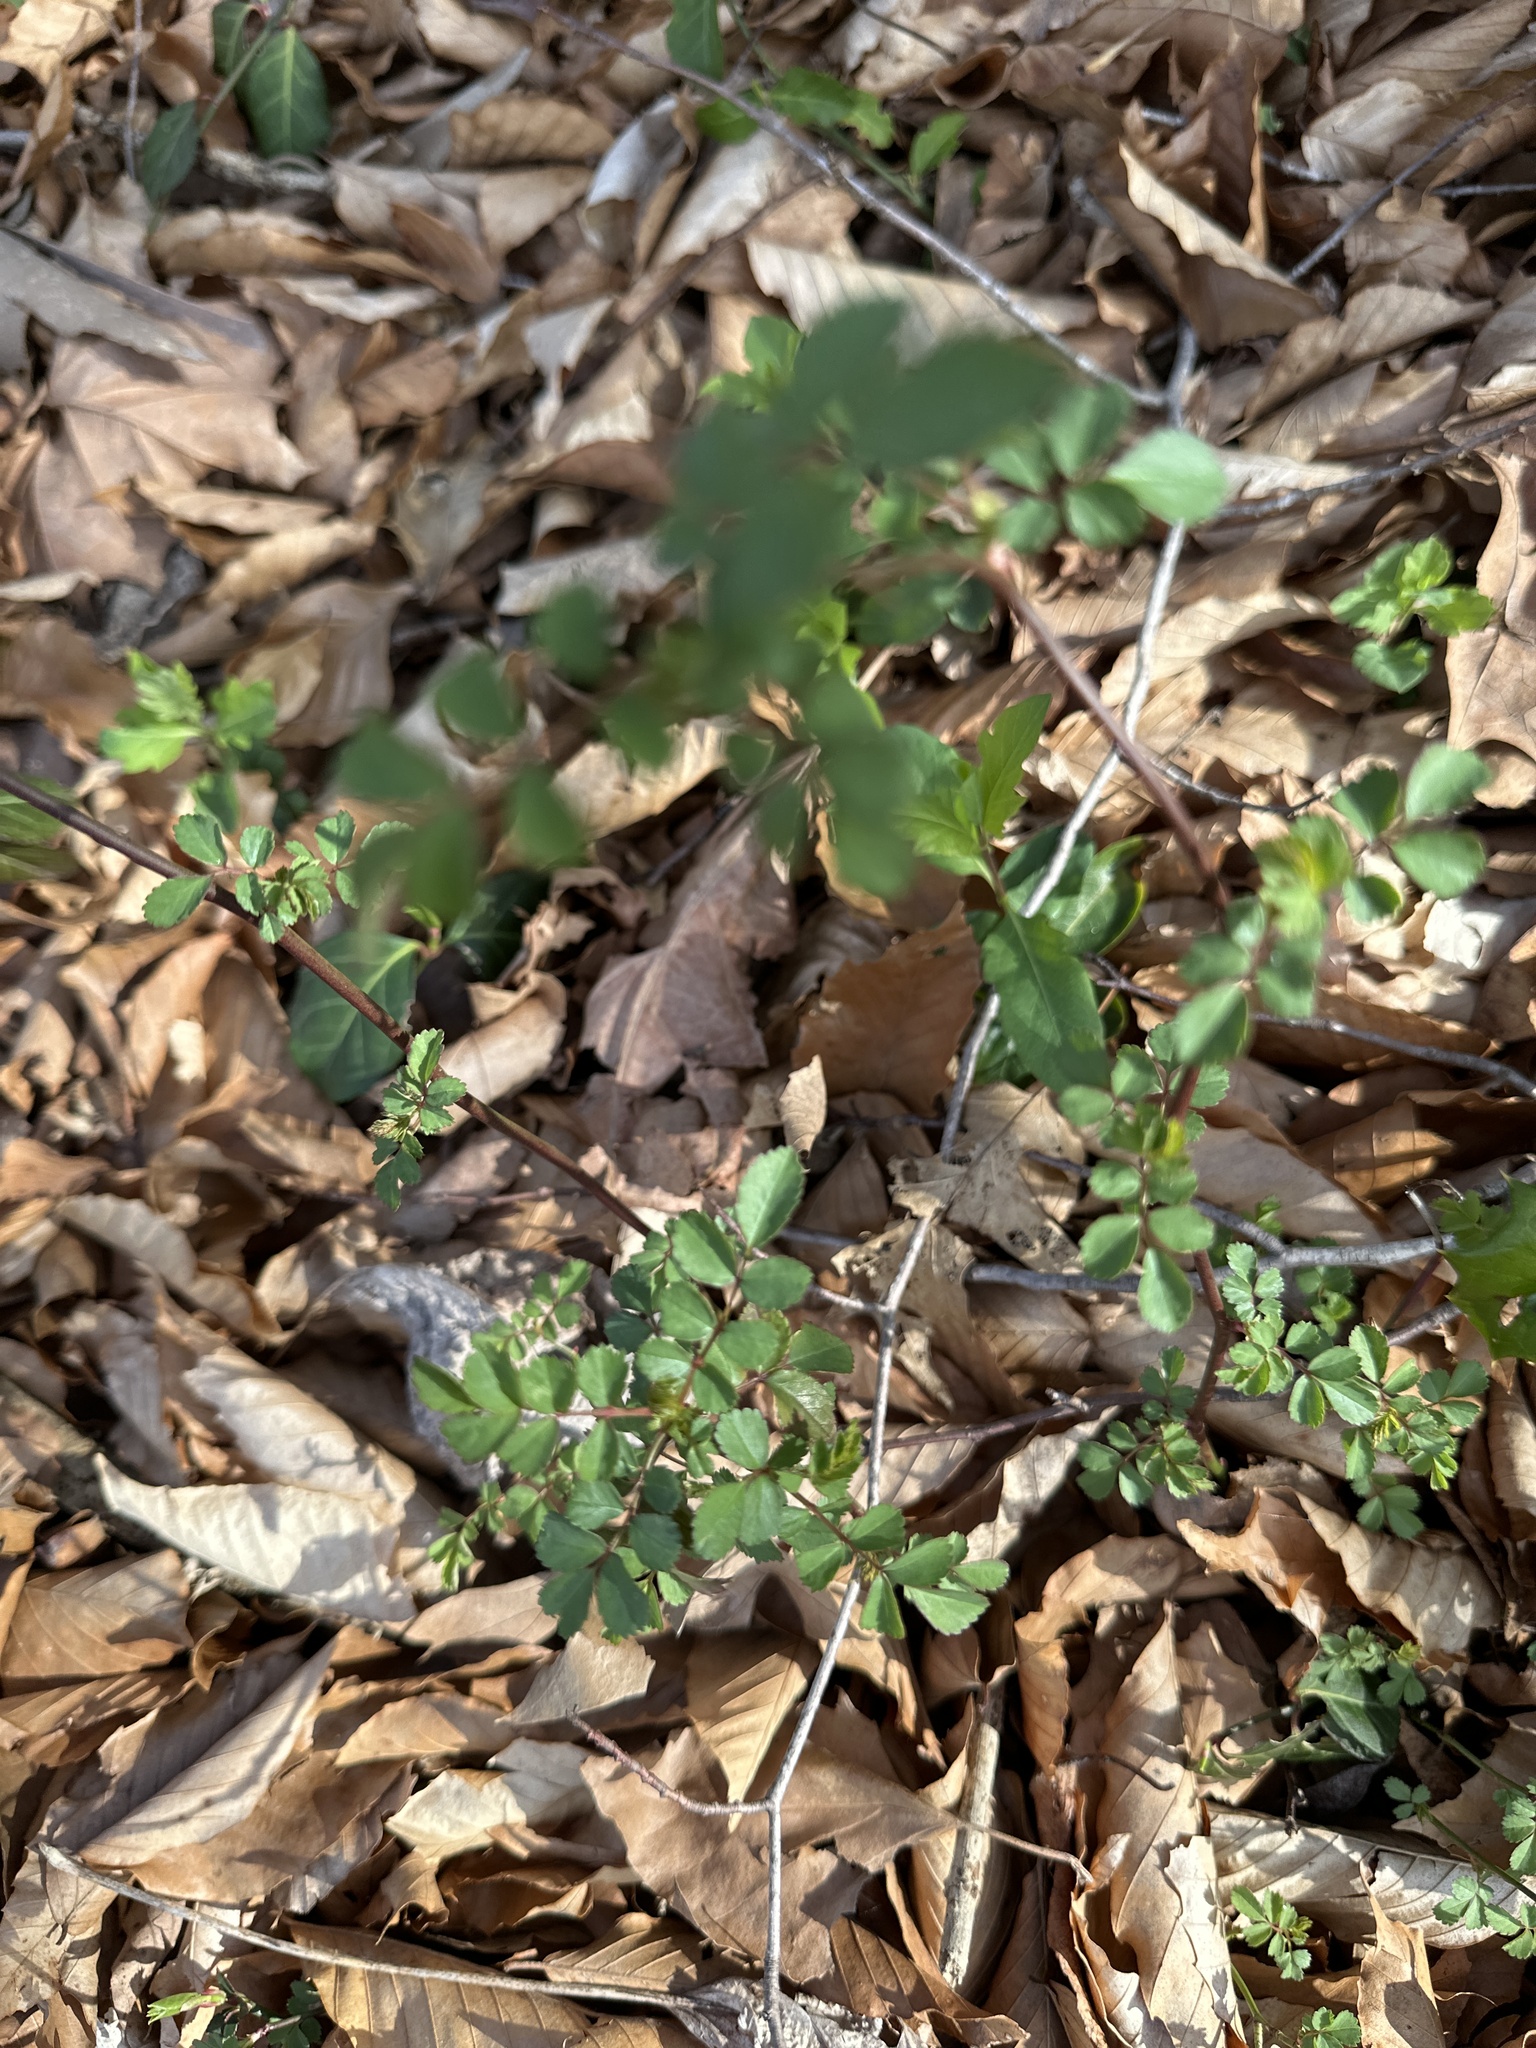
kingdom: Plantae
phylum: Tracheophyta
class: Magnoliopsida
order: Rosales
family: Rosaceae
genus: Rosa
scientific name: Rosa multiflora
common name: Multiflora rose
